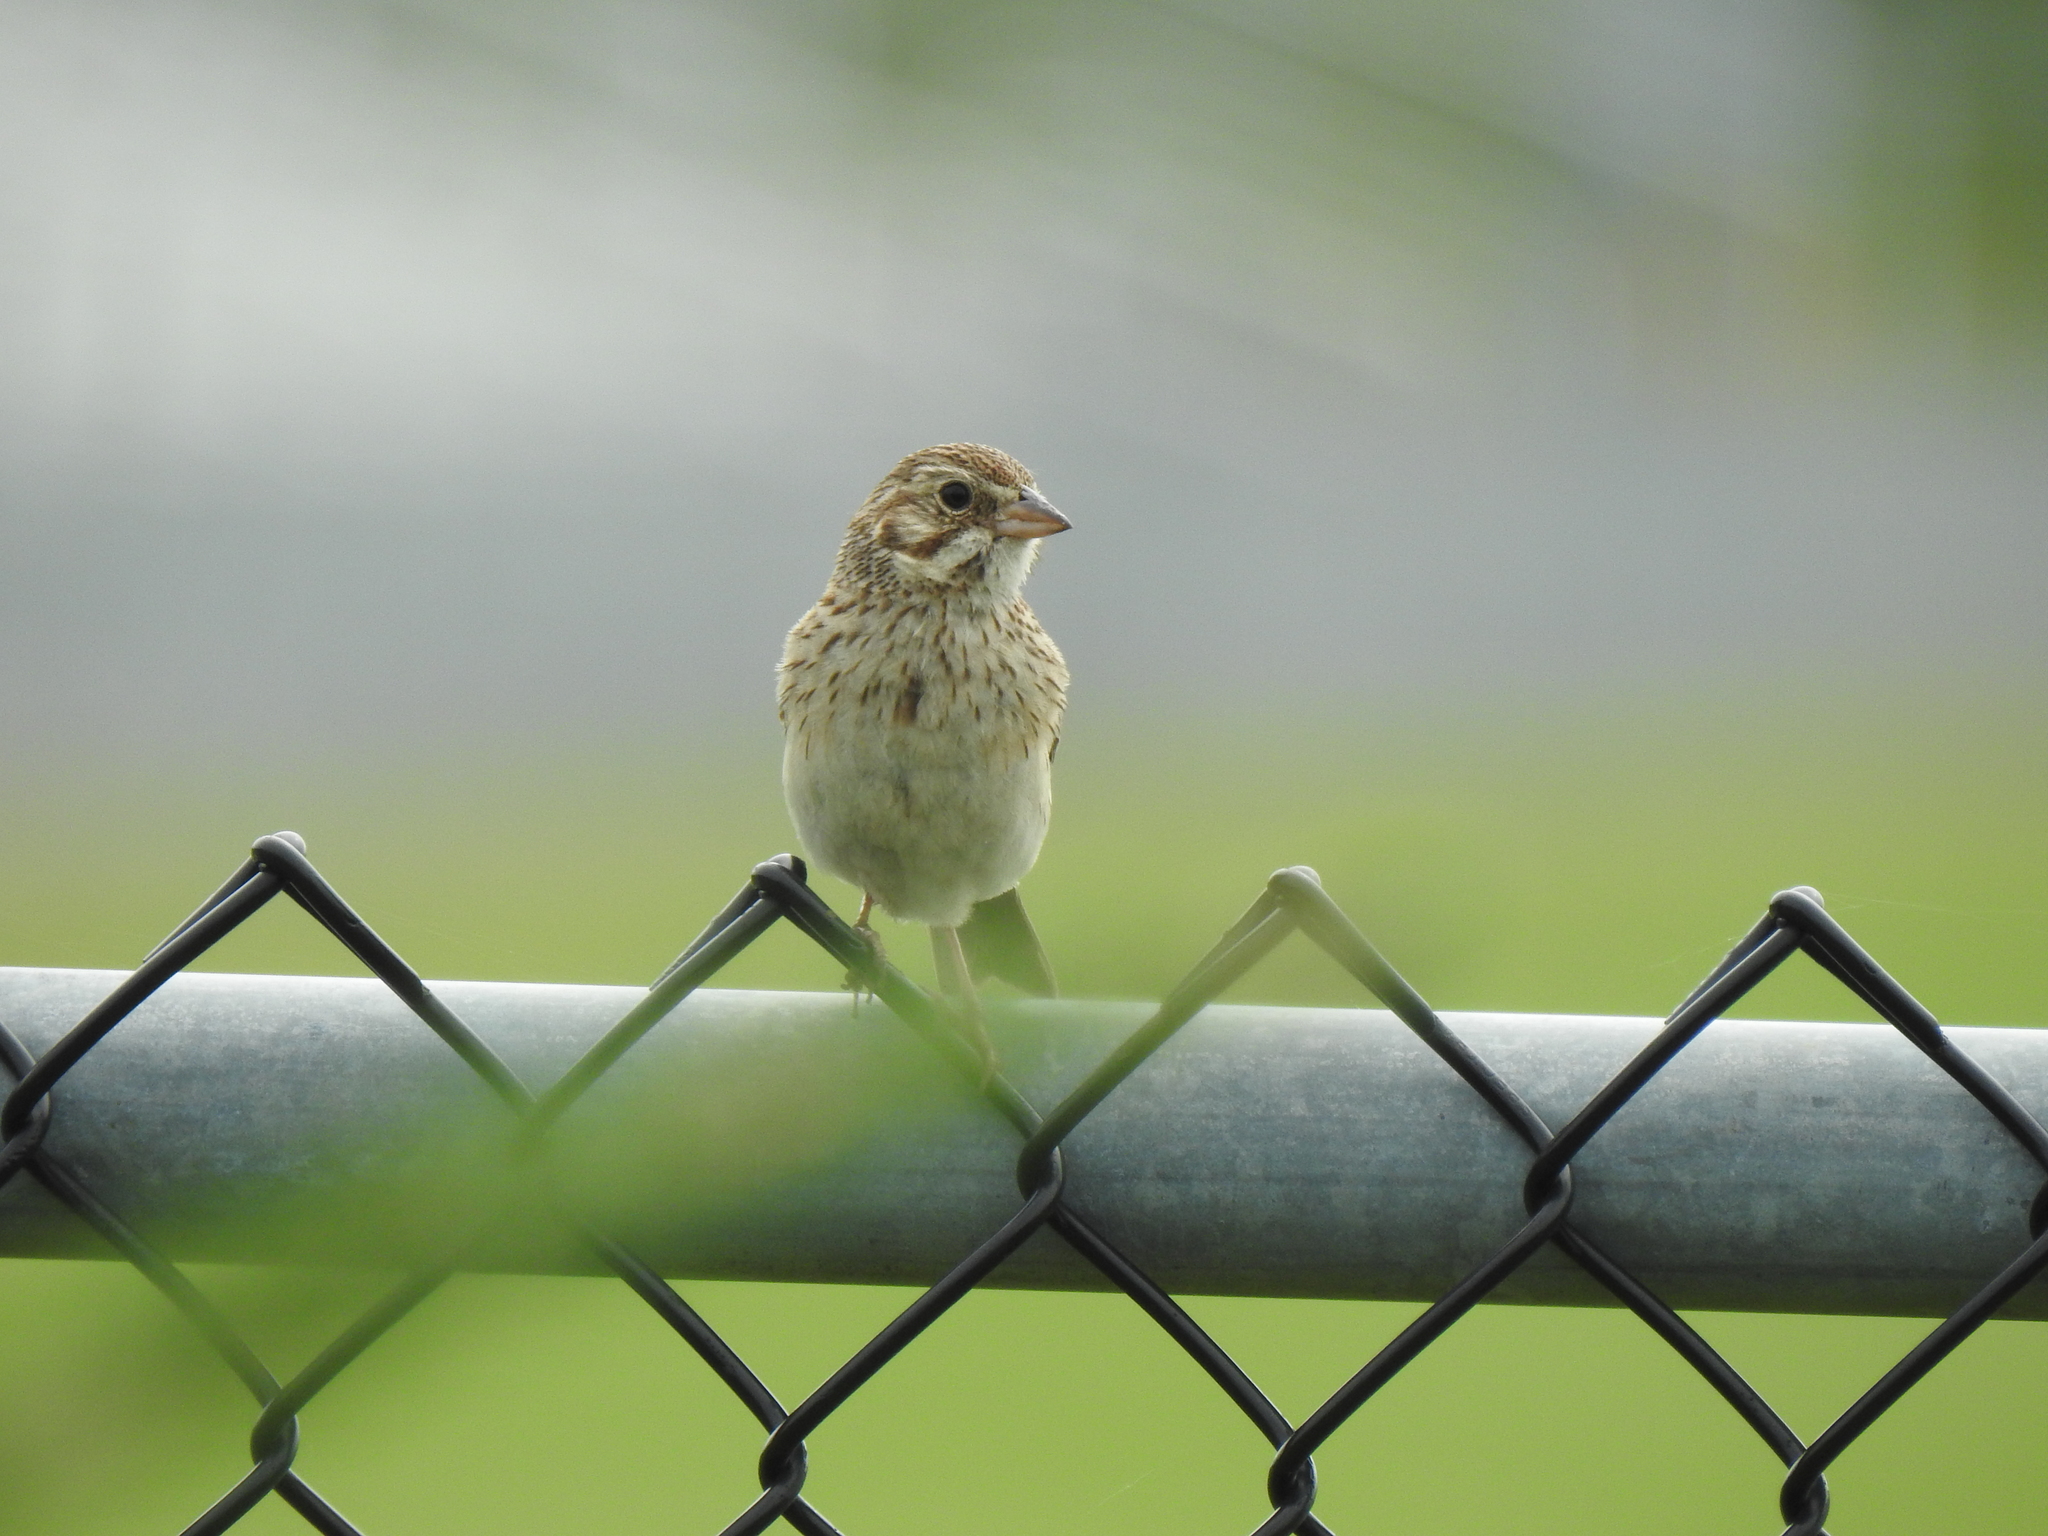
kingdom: Animalia
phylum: Chordata
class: Aves
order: Passeriformes
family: Passerellidae
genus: Pooecetes
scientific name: Pooecetes gramineus
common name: Vesper sparrow
